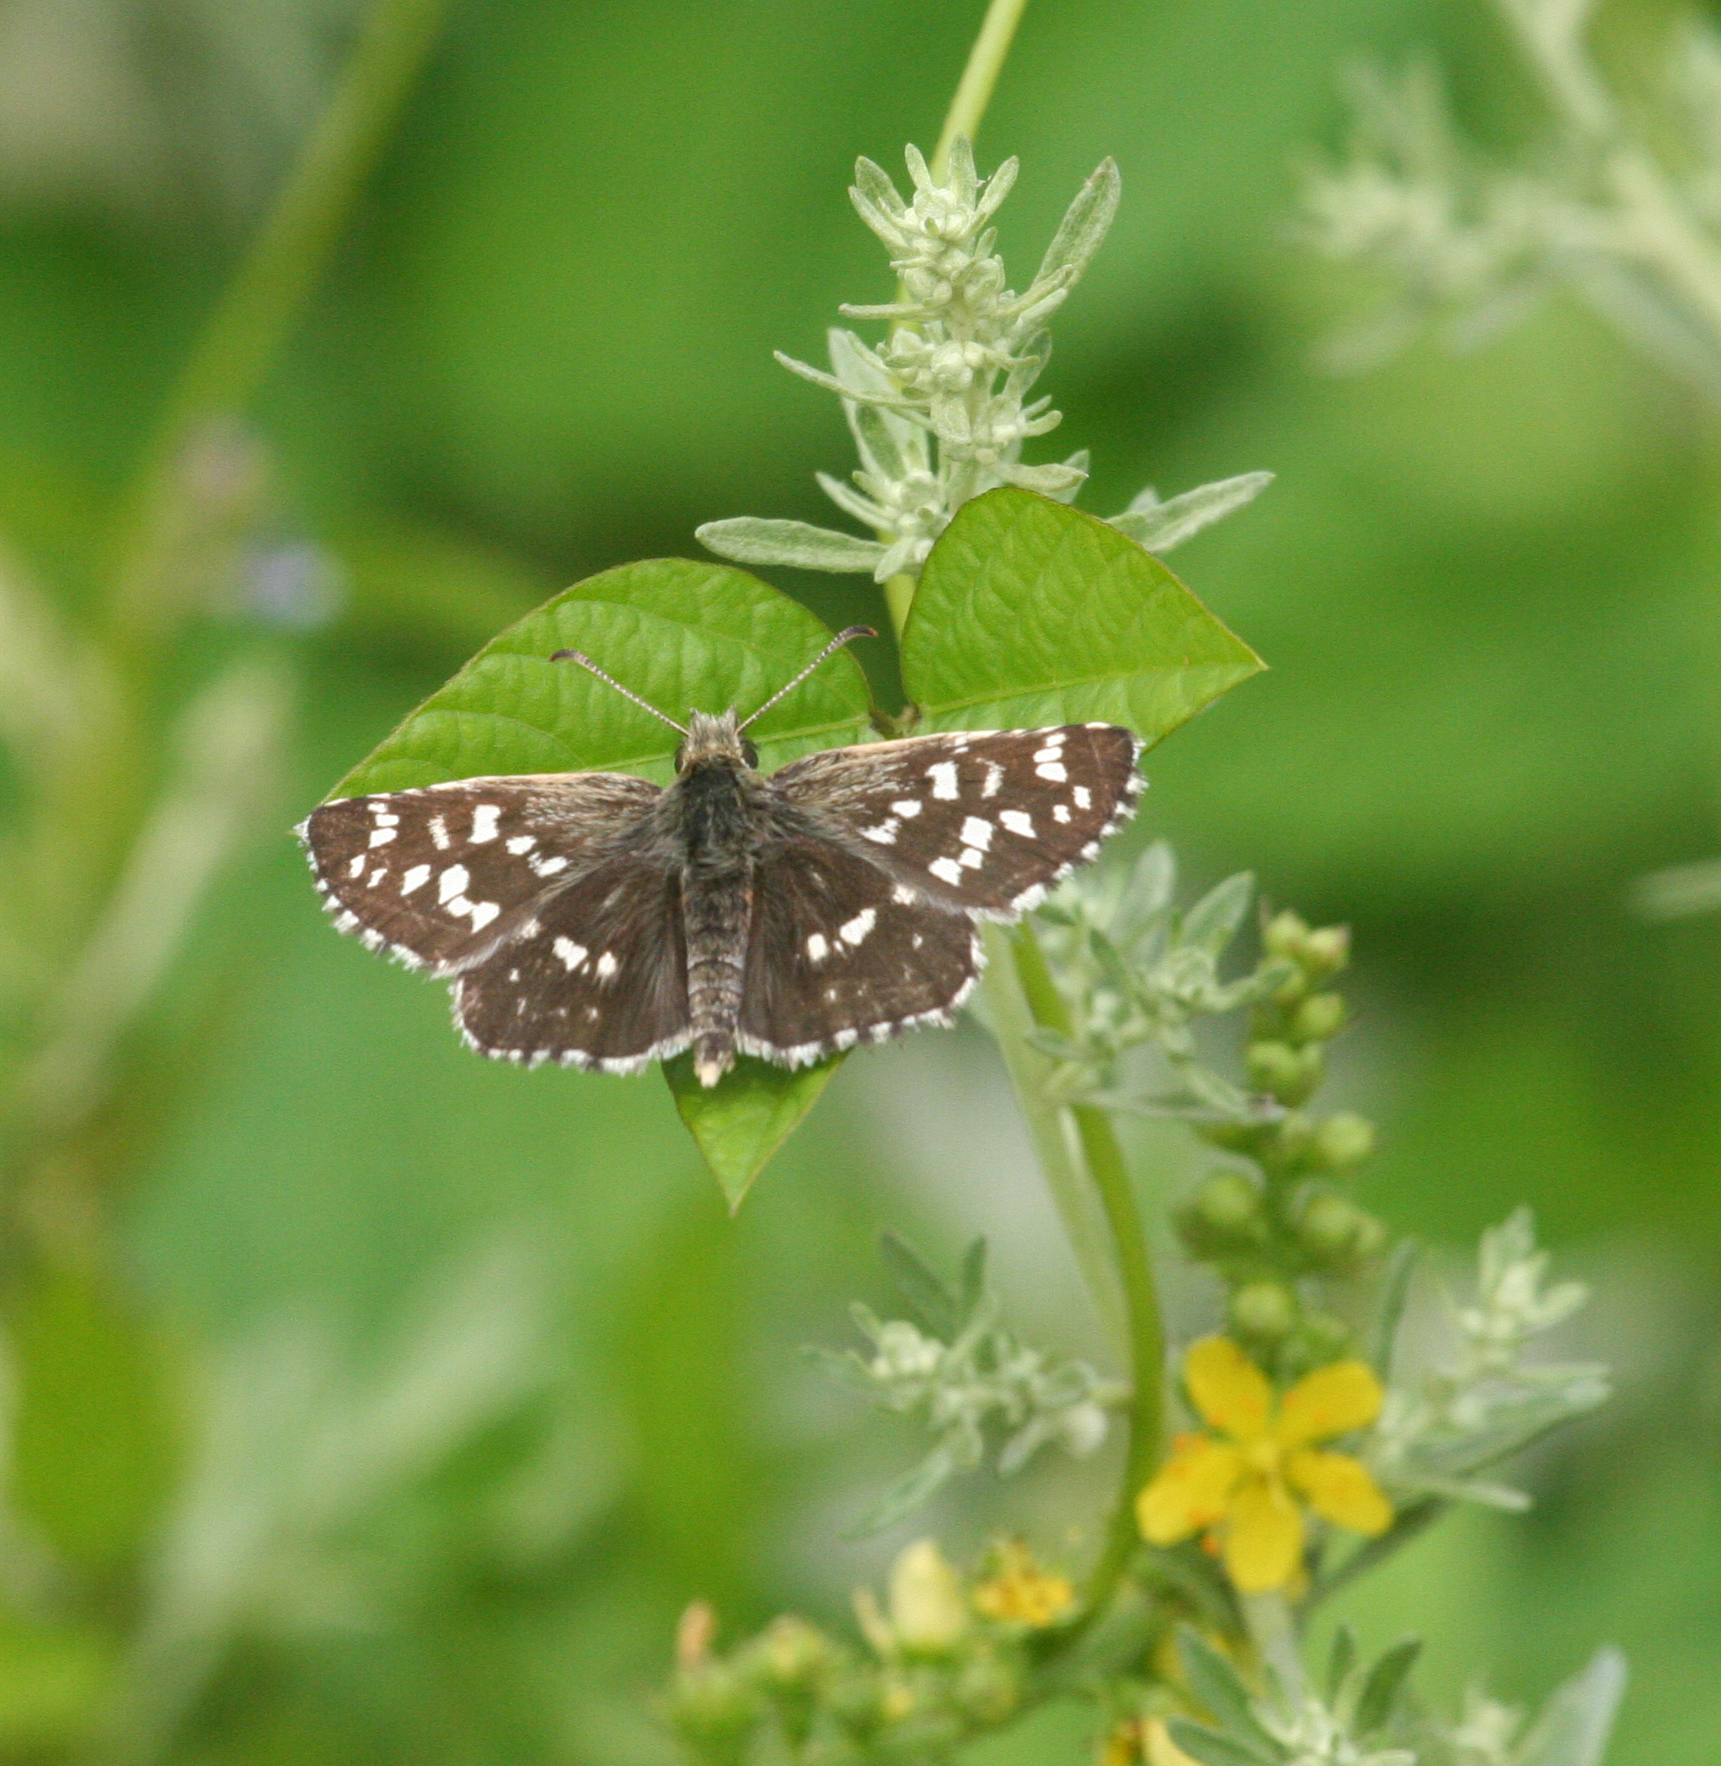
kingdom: Animalia
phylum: Arthropoda
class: Insecta
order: Lepidoptera
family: Hesperiidae
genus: Pyrgus
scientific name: Pyrgus maculatus
